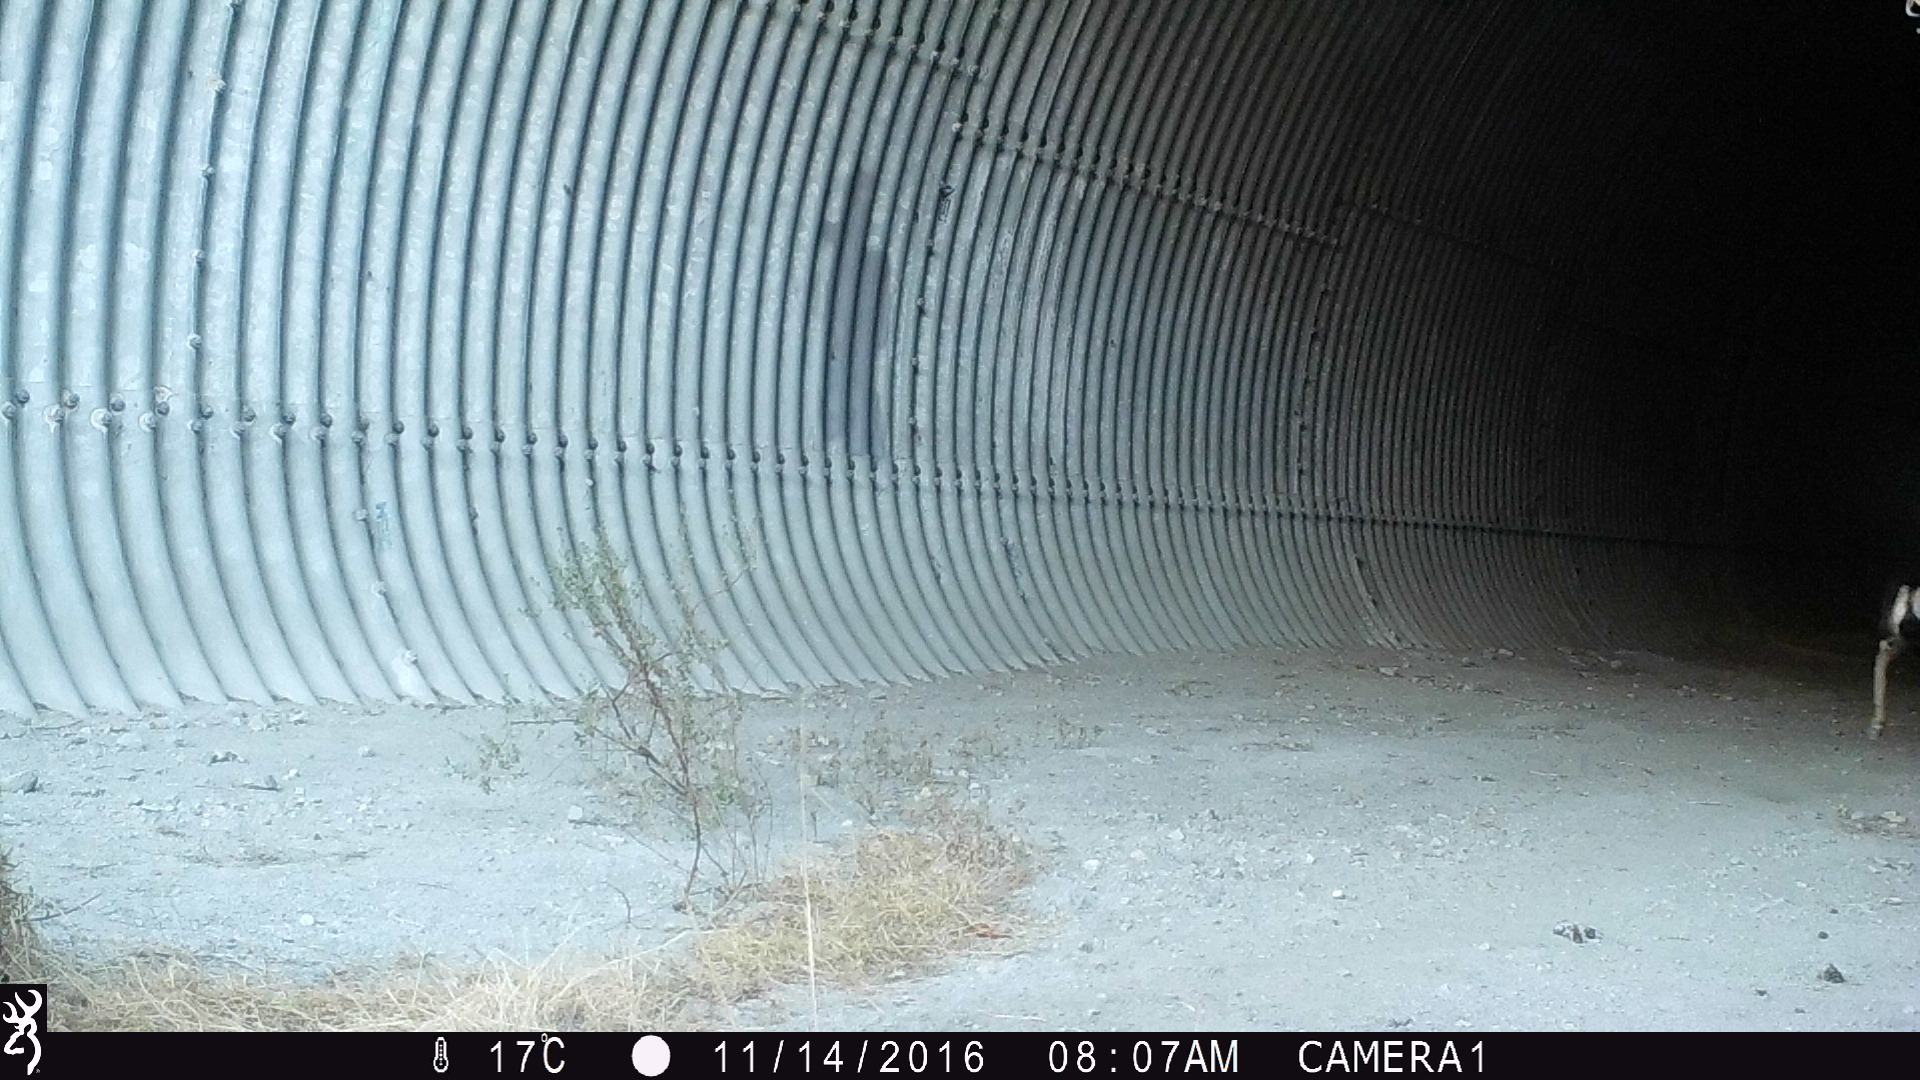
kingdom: Animalia
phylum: Chordata
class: Mammalia
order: Artiodactyla
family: Cervidae
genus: Odocoileus
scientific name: Odocoileus hemionus
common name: Mule deer
